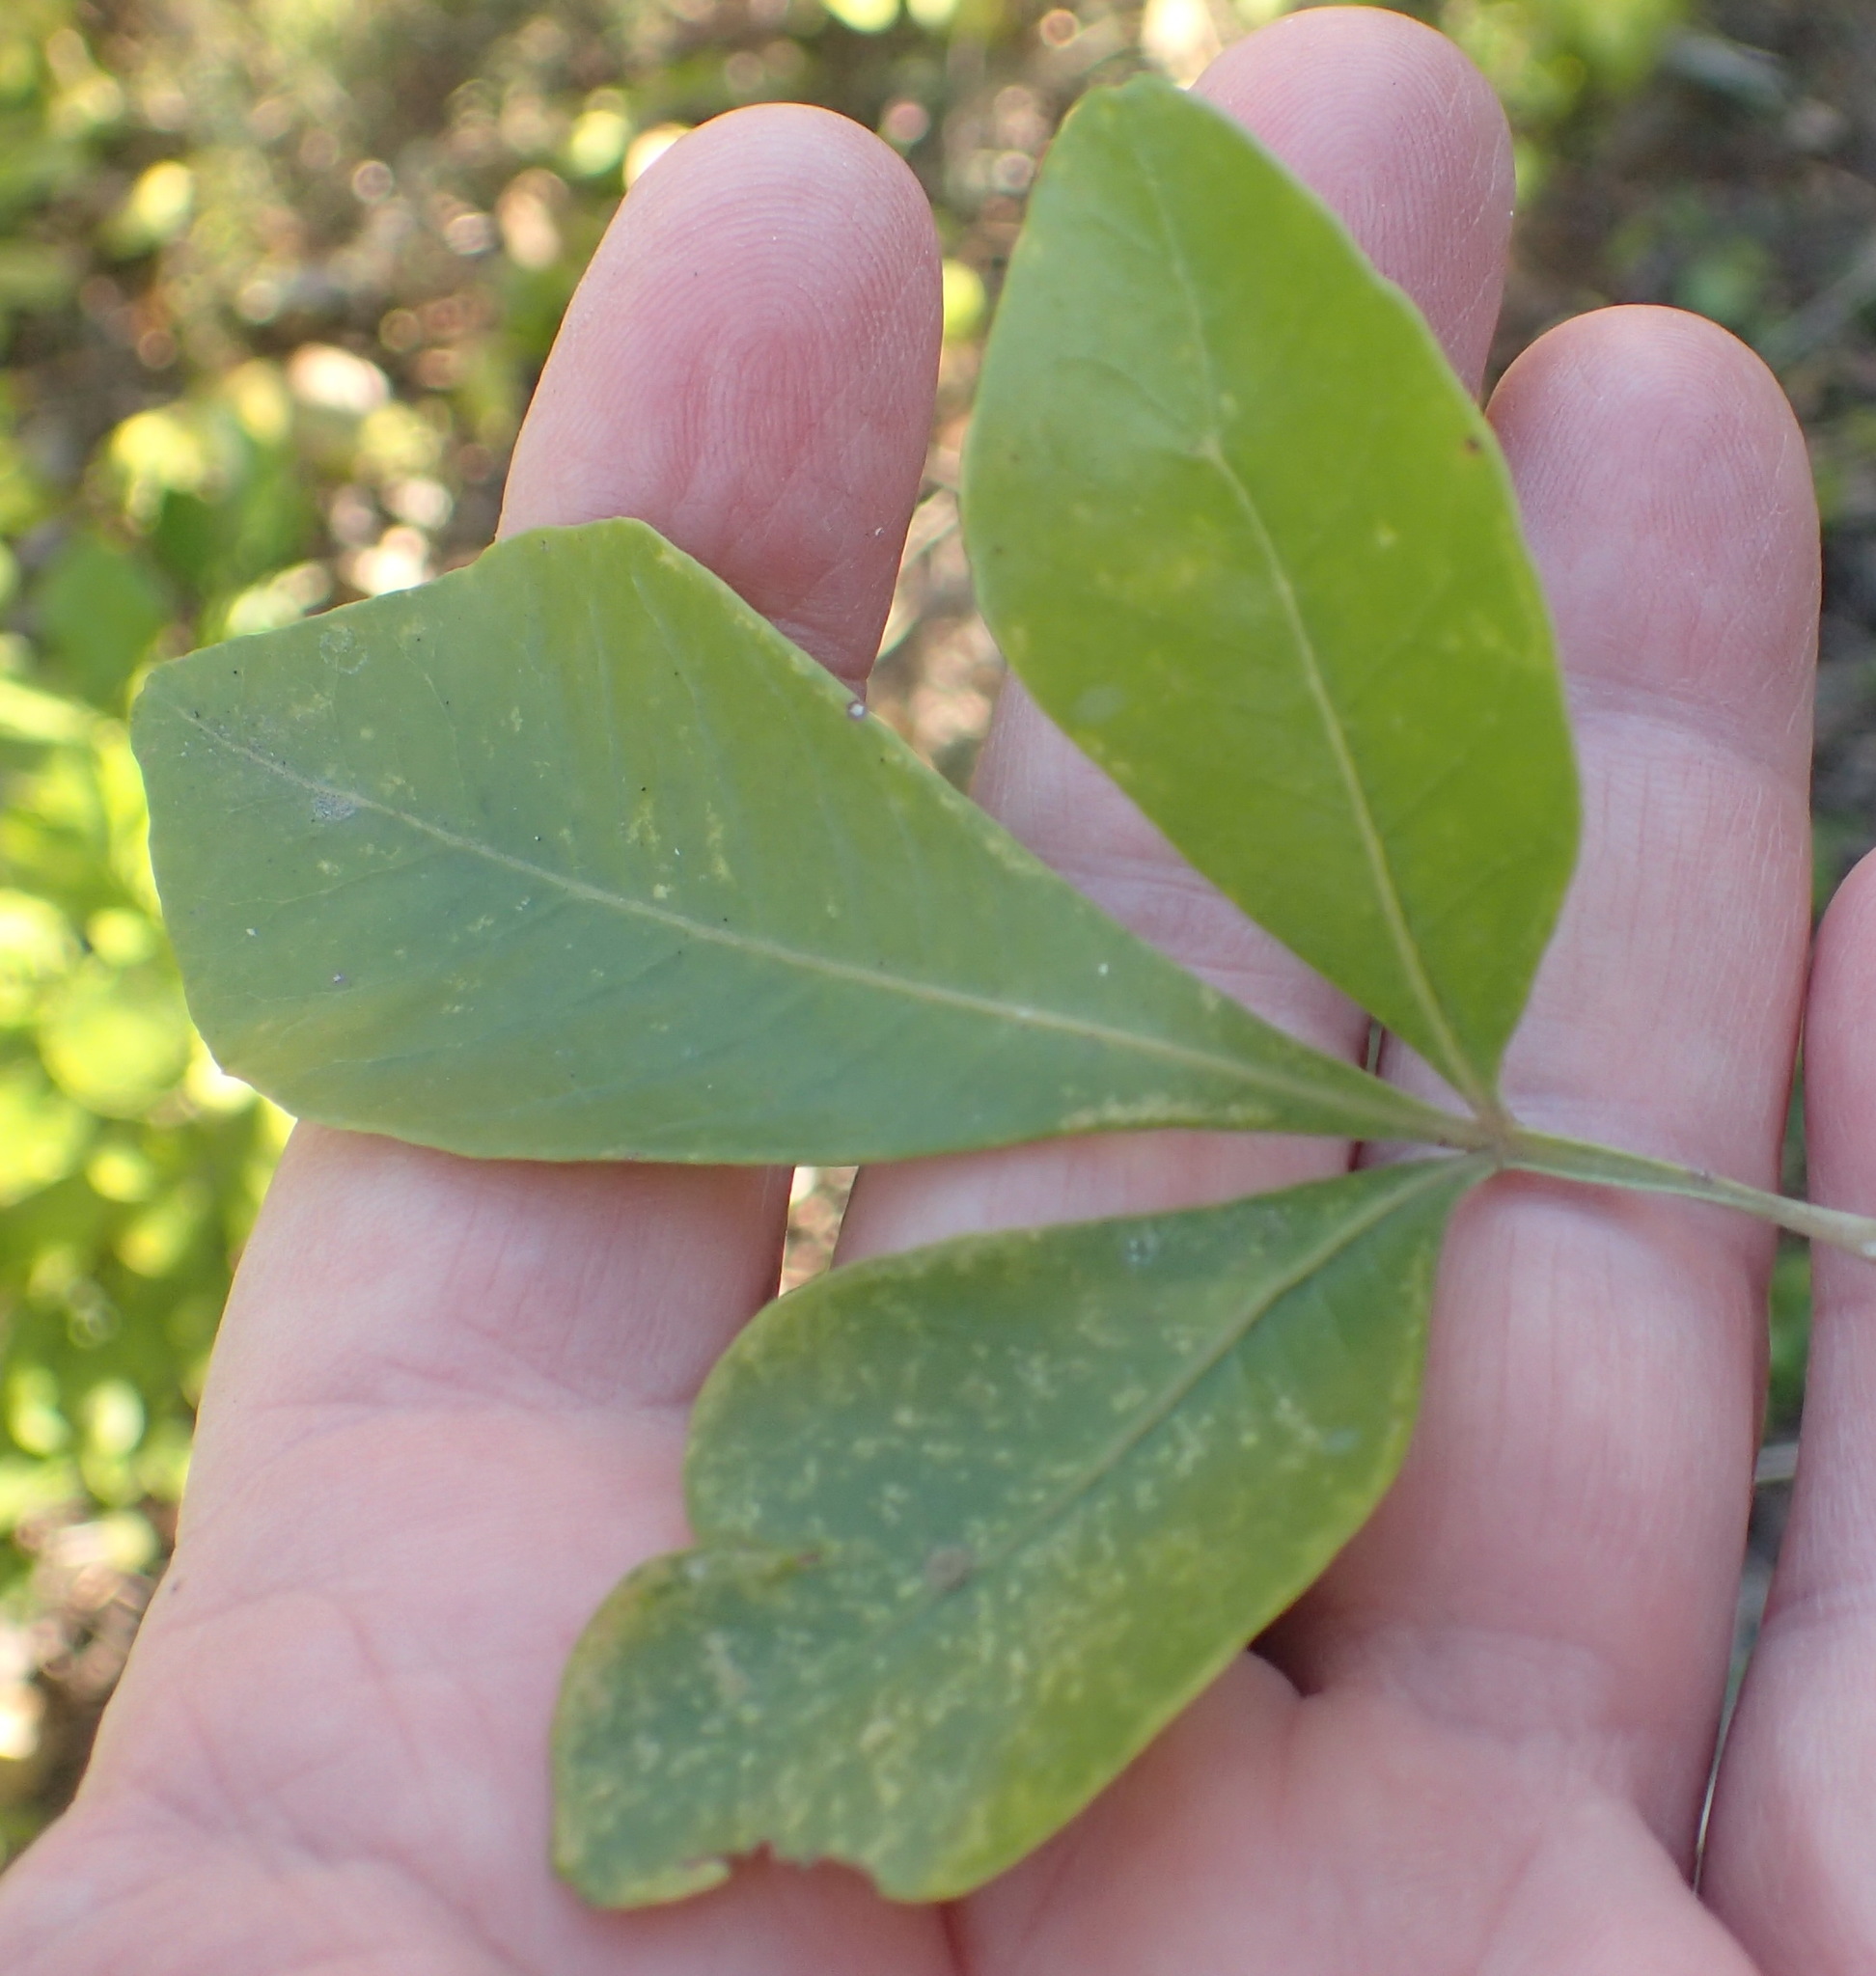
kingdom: Plantae
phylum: Tracheophyta
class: Magnoliopsida
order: Sapindales
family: Anacardiaceae
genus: Searsia
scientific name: Searsia lucida
